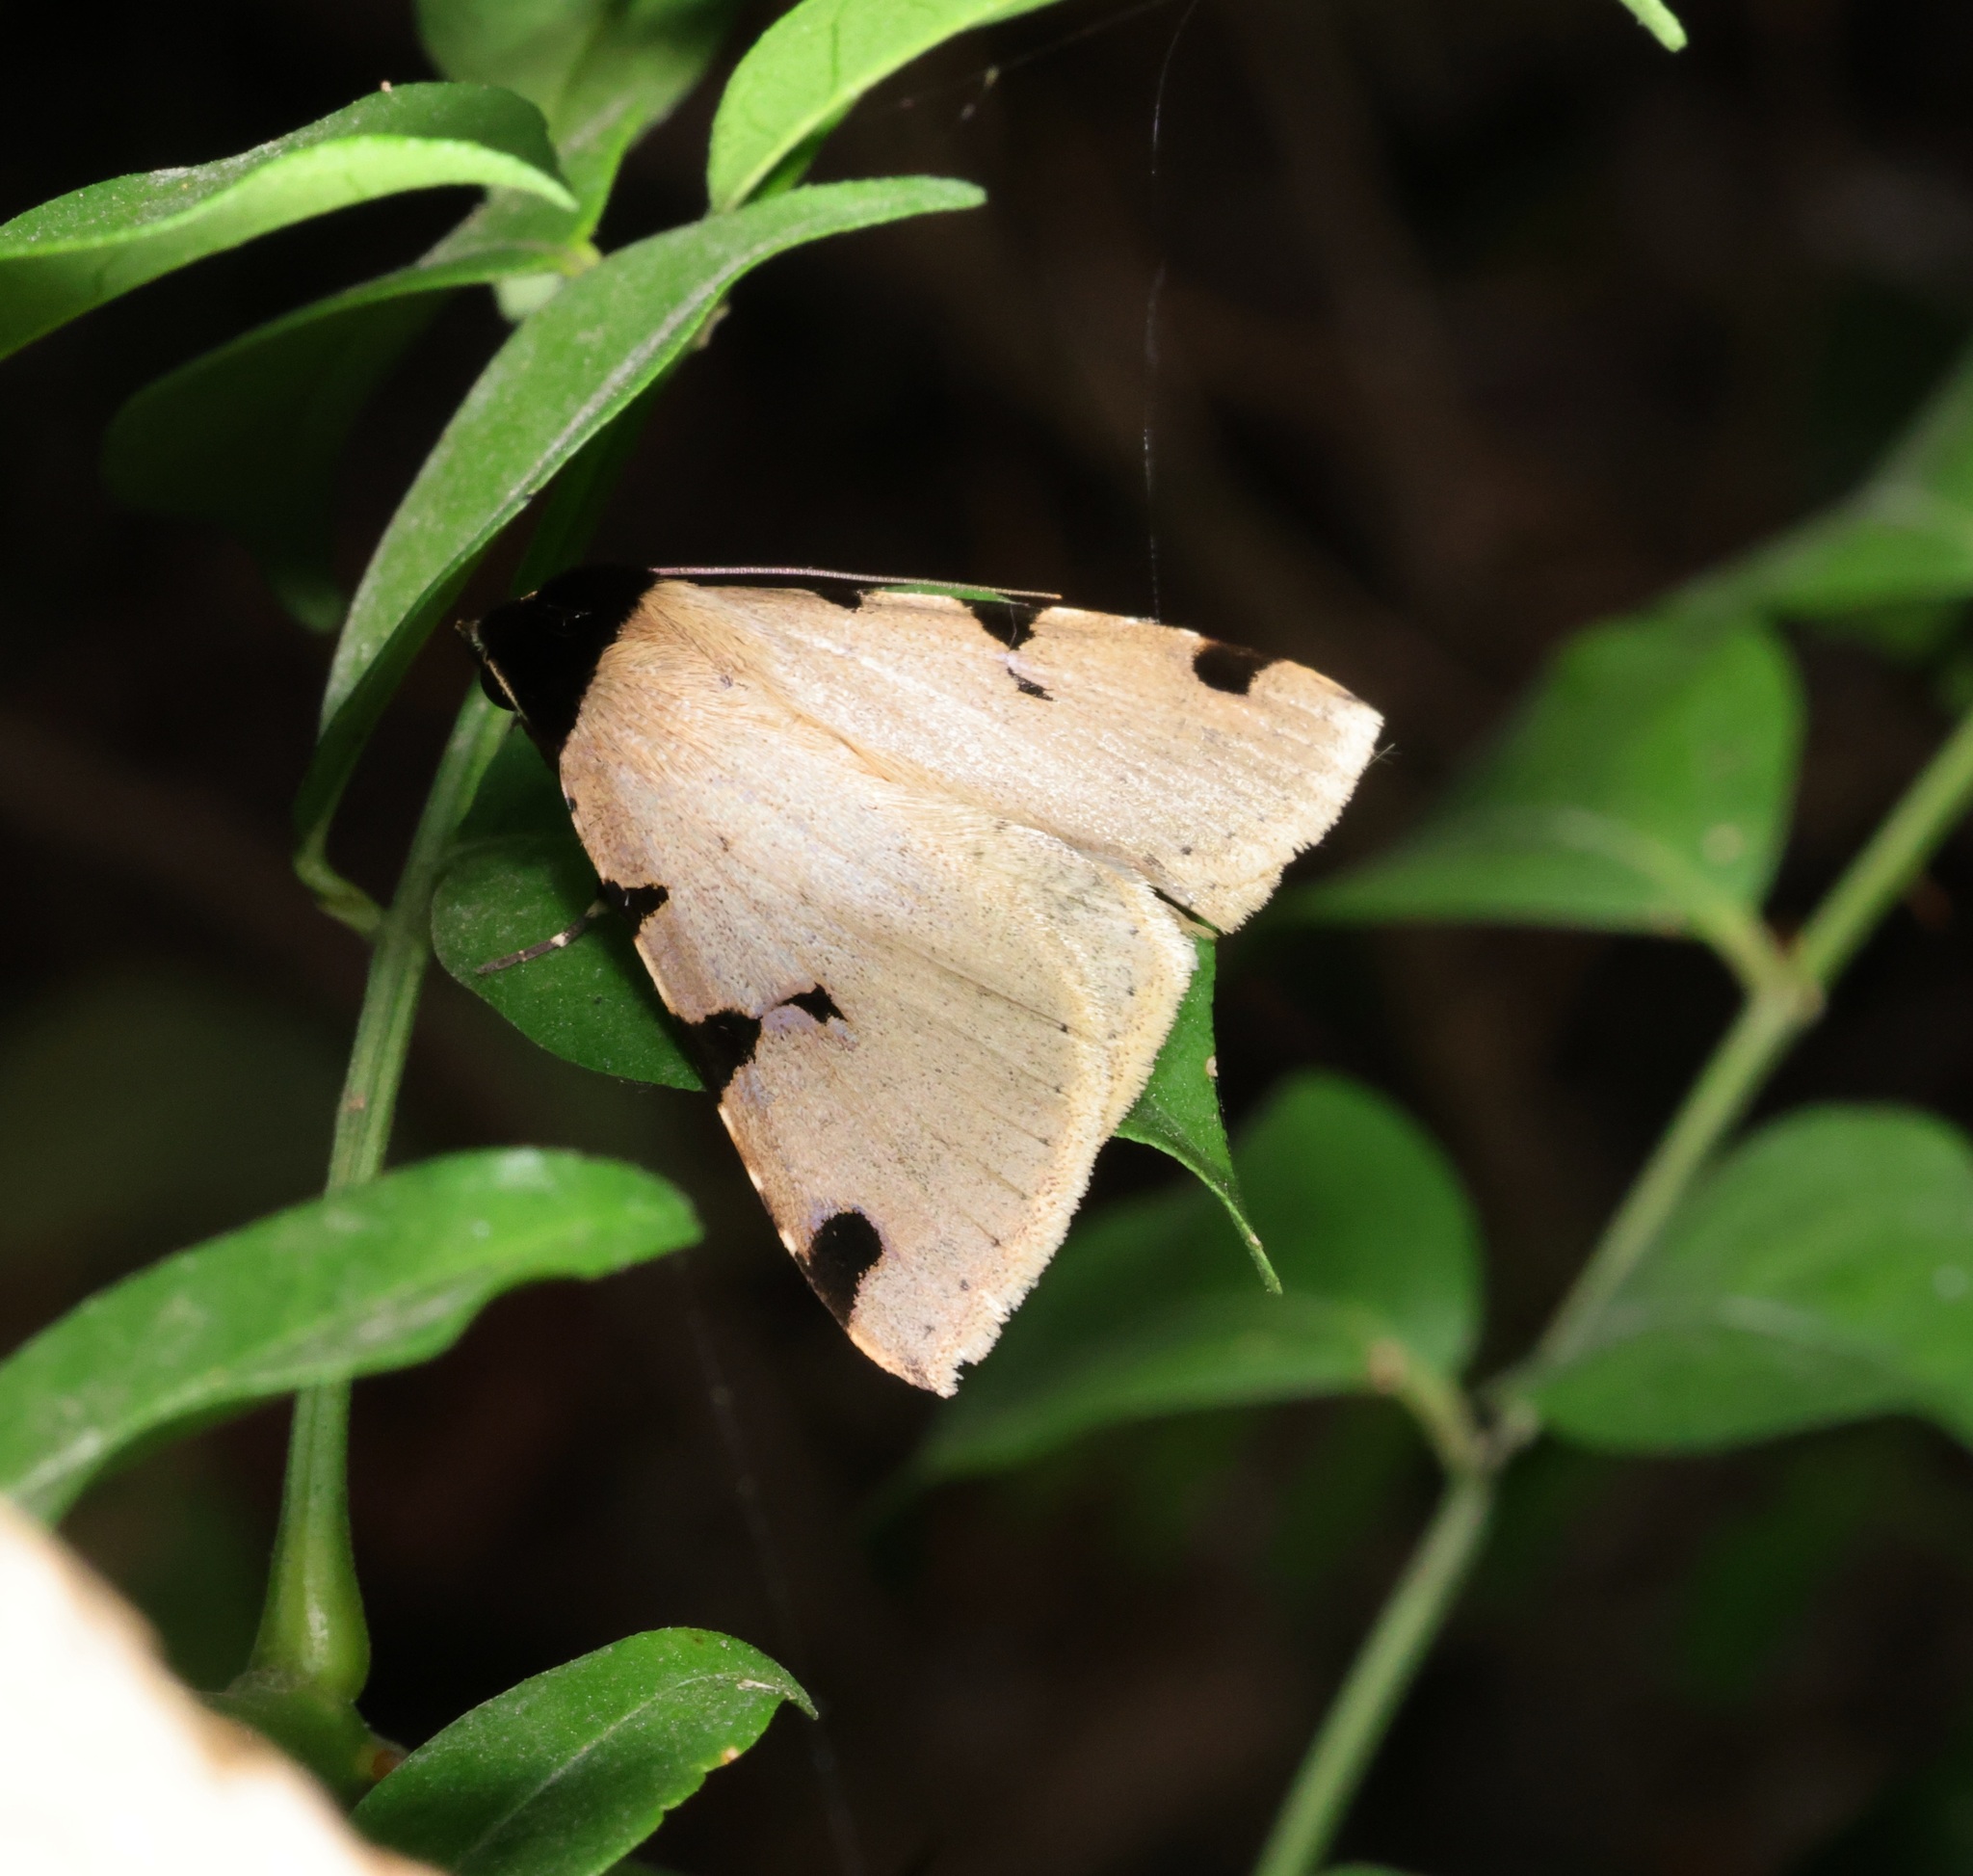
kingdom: Animalia
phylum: Arthropoda
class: Insecta
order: Lepidoptera
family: Erebidae
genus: Rema
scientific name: Rema costimacula
